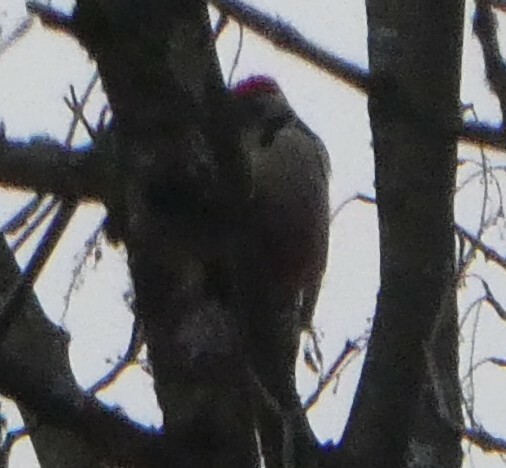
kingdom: Animalia
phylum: Chordata
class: Aves
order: Piciformes
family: Picidae
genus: Dendrocoptes
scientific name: Dendrocoptes medius
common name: Middle spotted woodpecker
